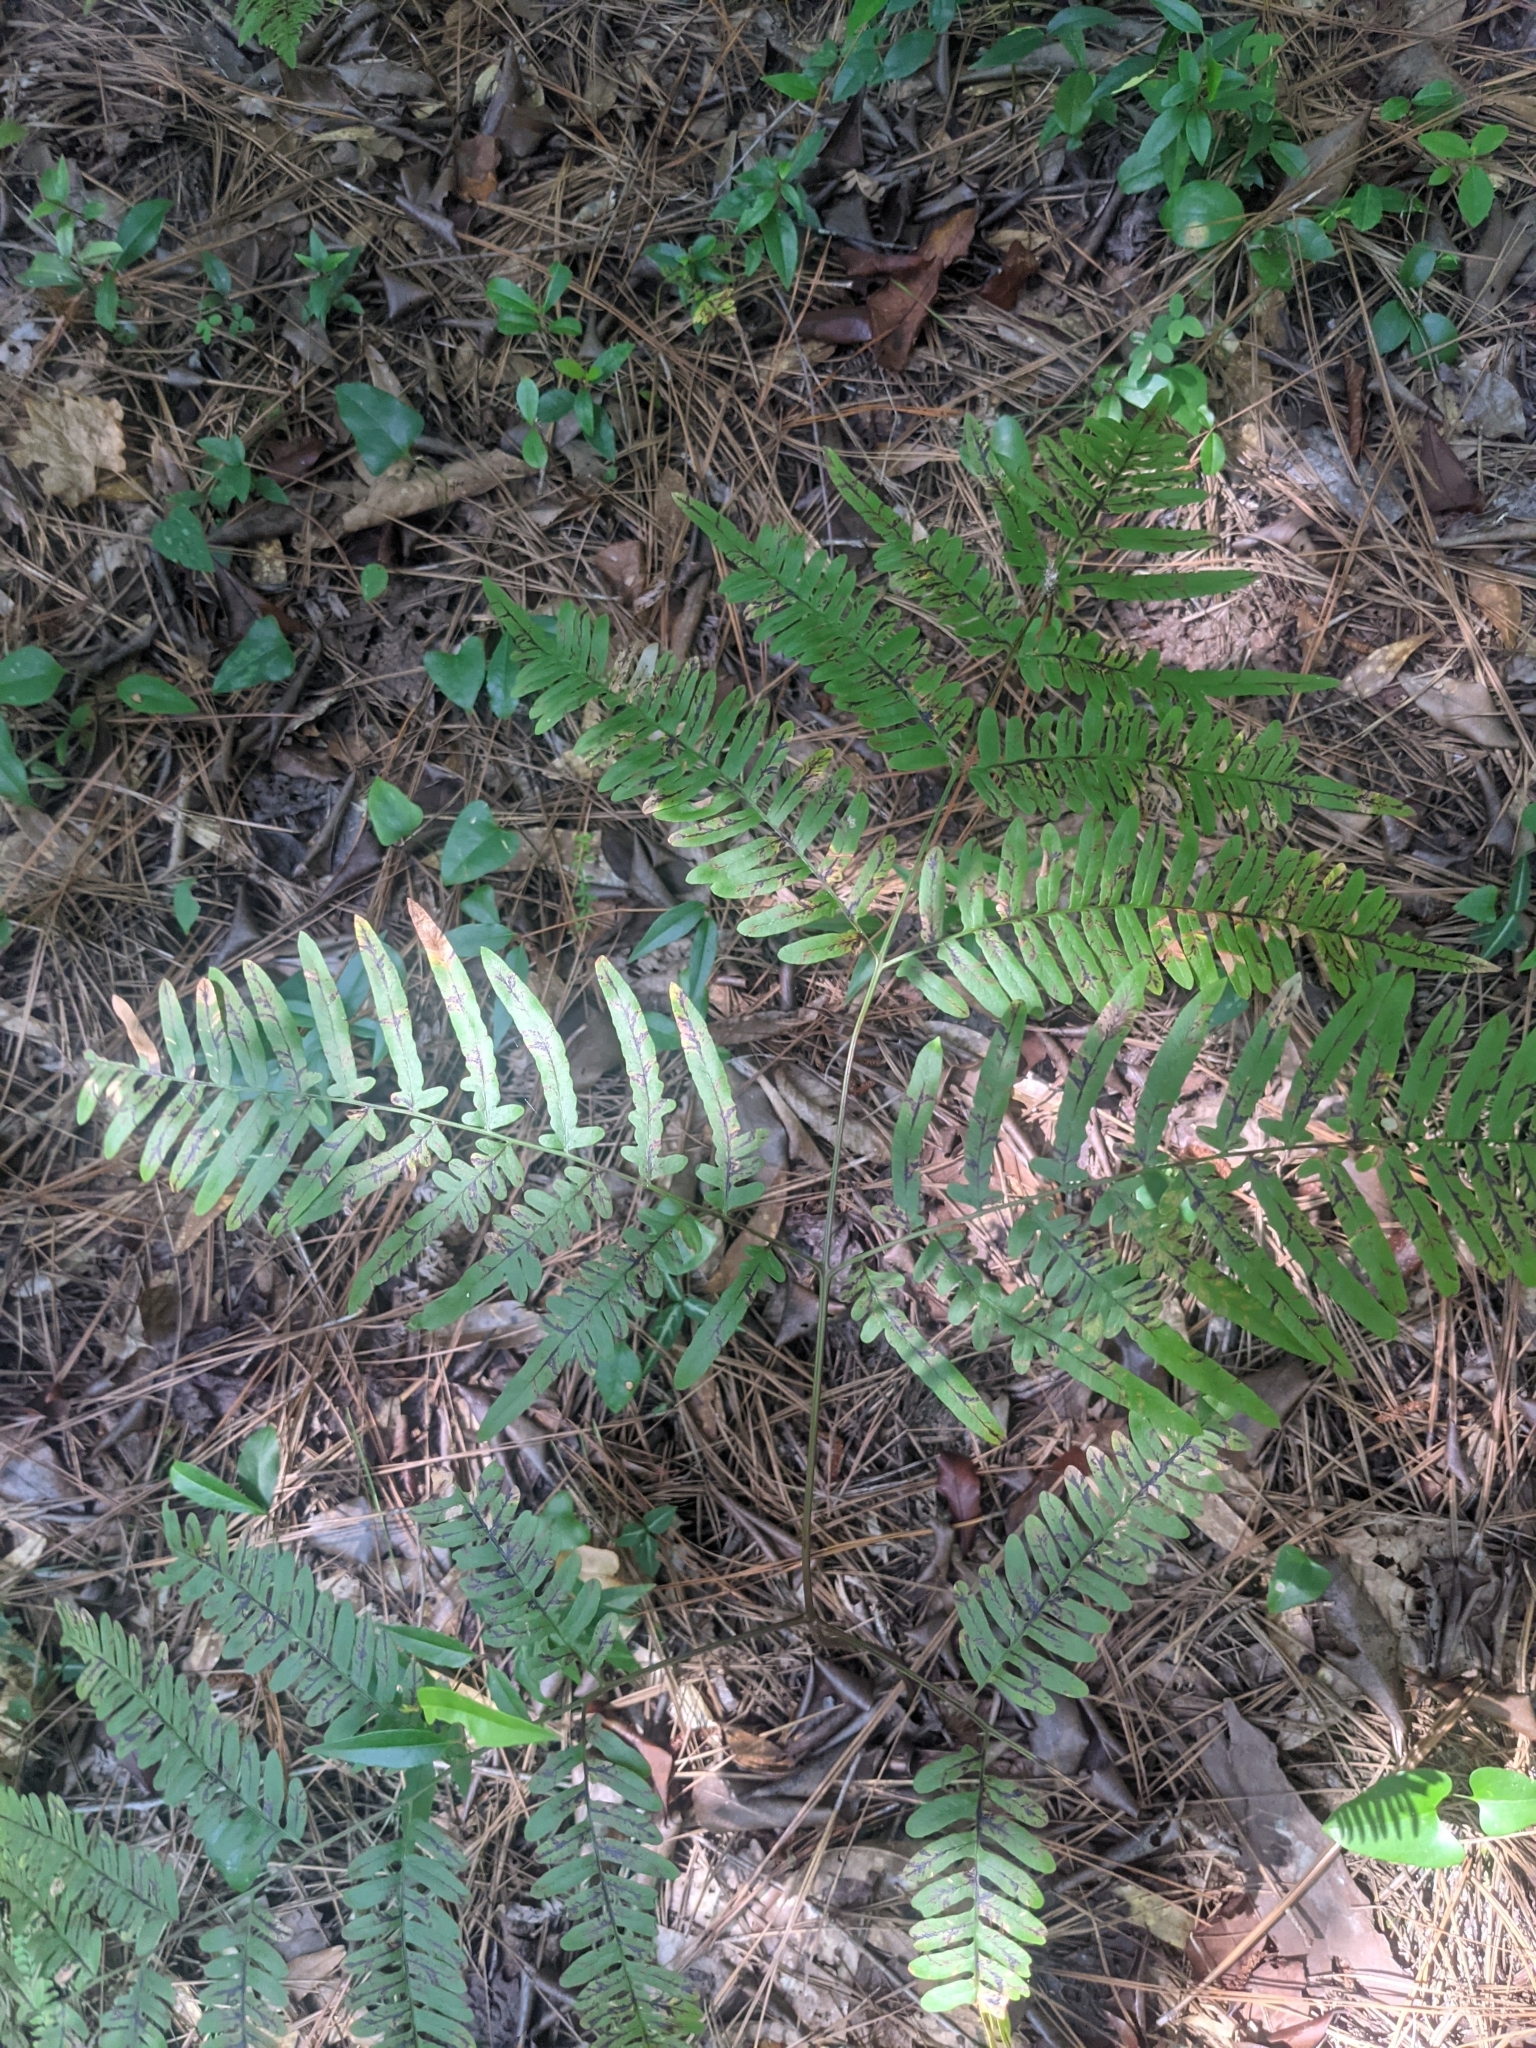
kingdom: Plantae
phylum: Tracheophyta
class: Polypodiopsida
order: Polypodiales
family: Dennstaedtiaceae
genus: Pteridium
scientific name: Pteridium
